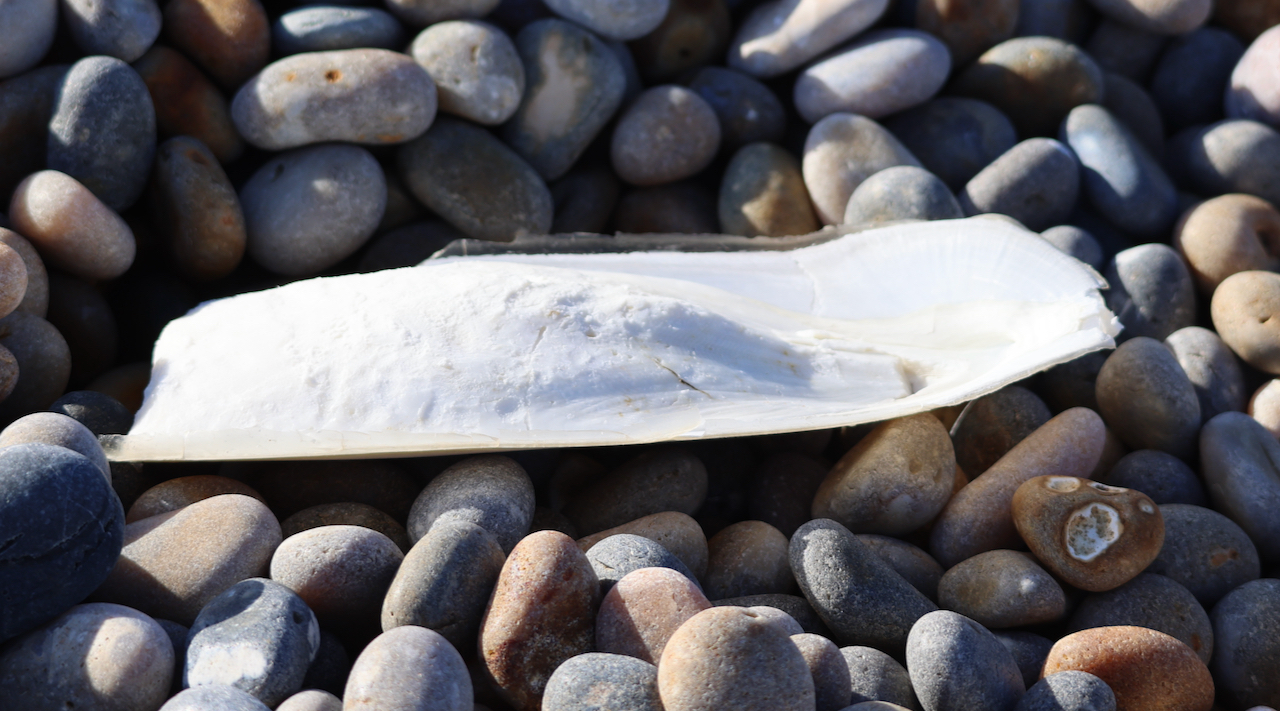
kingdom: Animalia
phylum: Mollusca
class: Cephalopoda
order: Sepiida
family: Sepiidae
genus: Sepia
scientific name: Sepia officinalis
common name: Common cuttlefish
